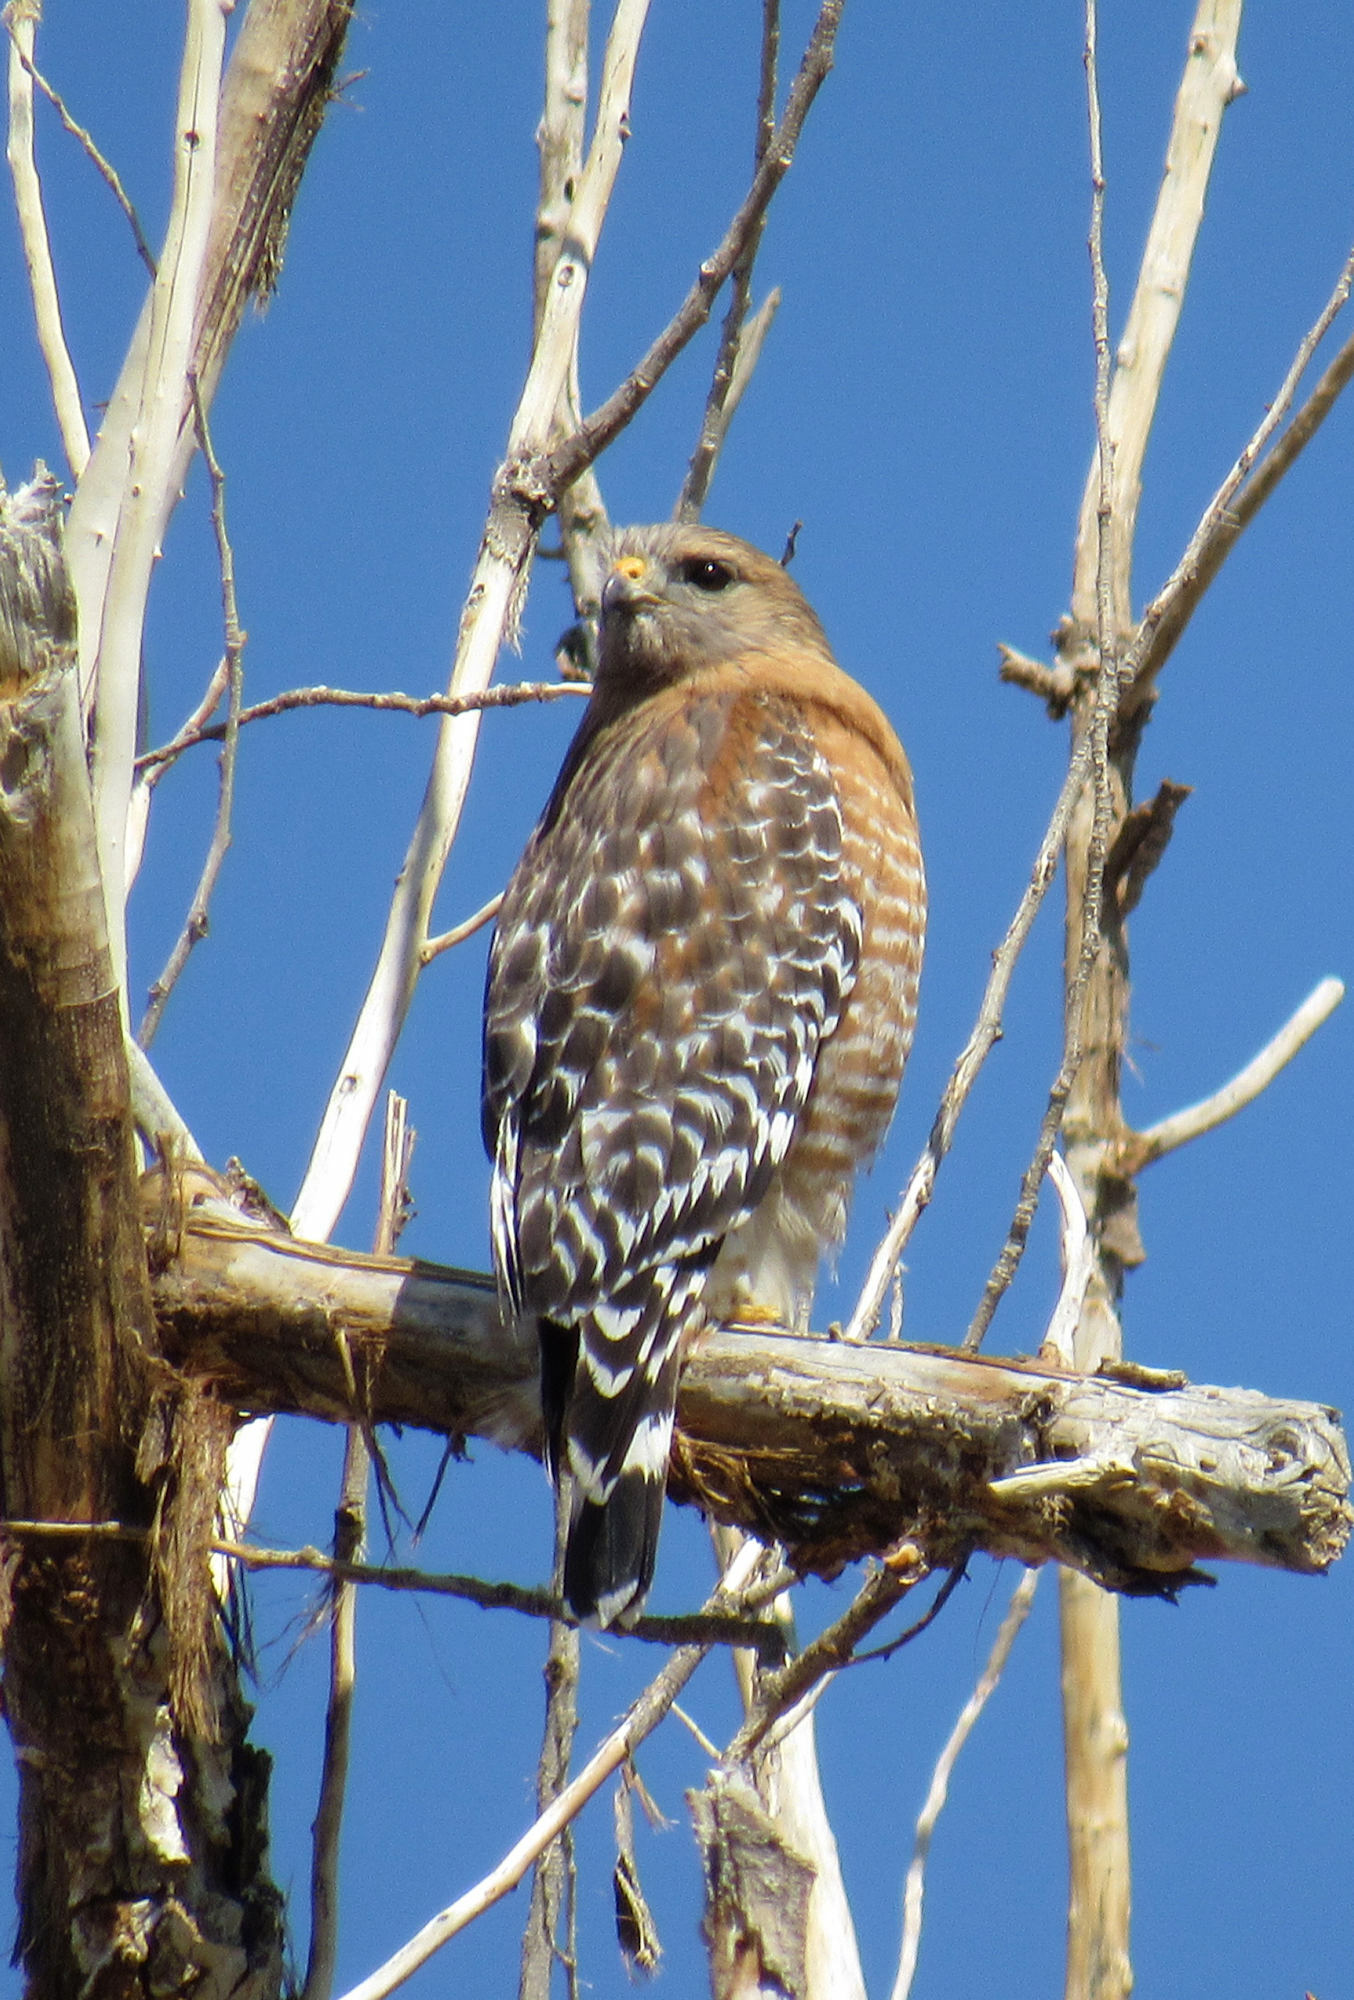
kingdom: Animalia
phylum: Chordata
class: Aves
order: Accipitriformes
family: Accipitridae
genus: Buteo
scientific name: Buteo lineatus
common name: Red-shouldered hawk
